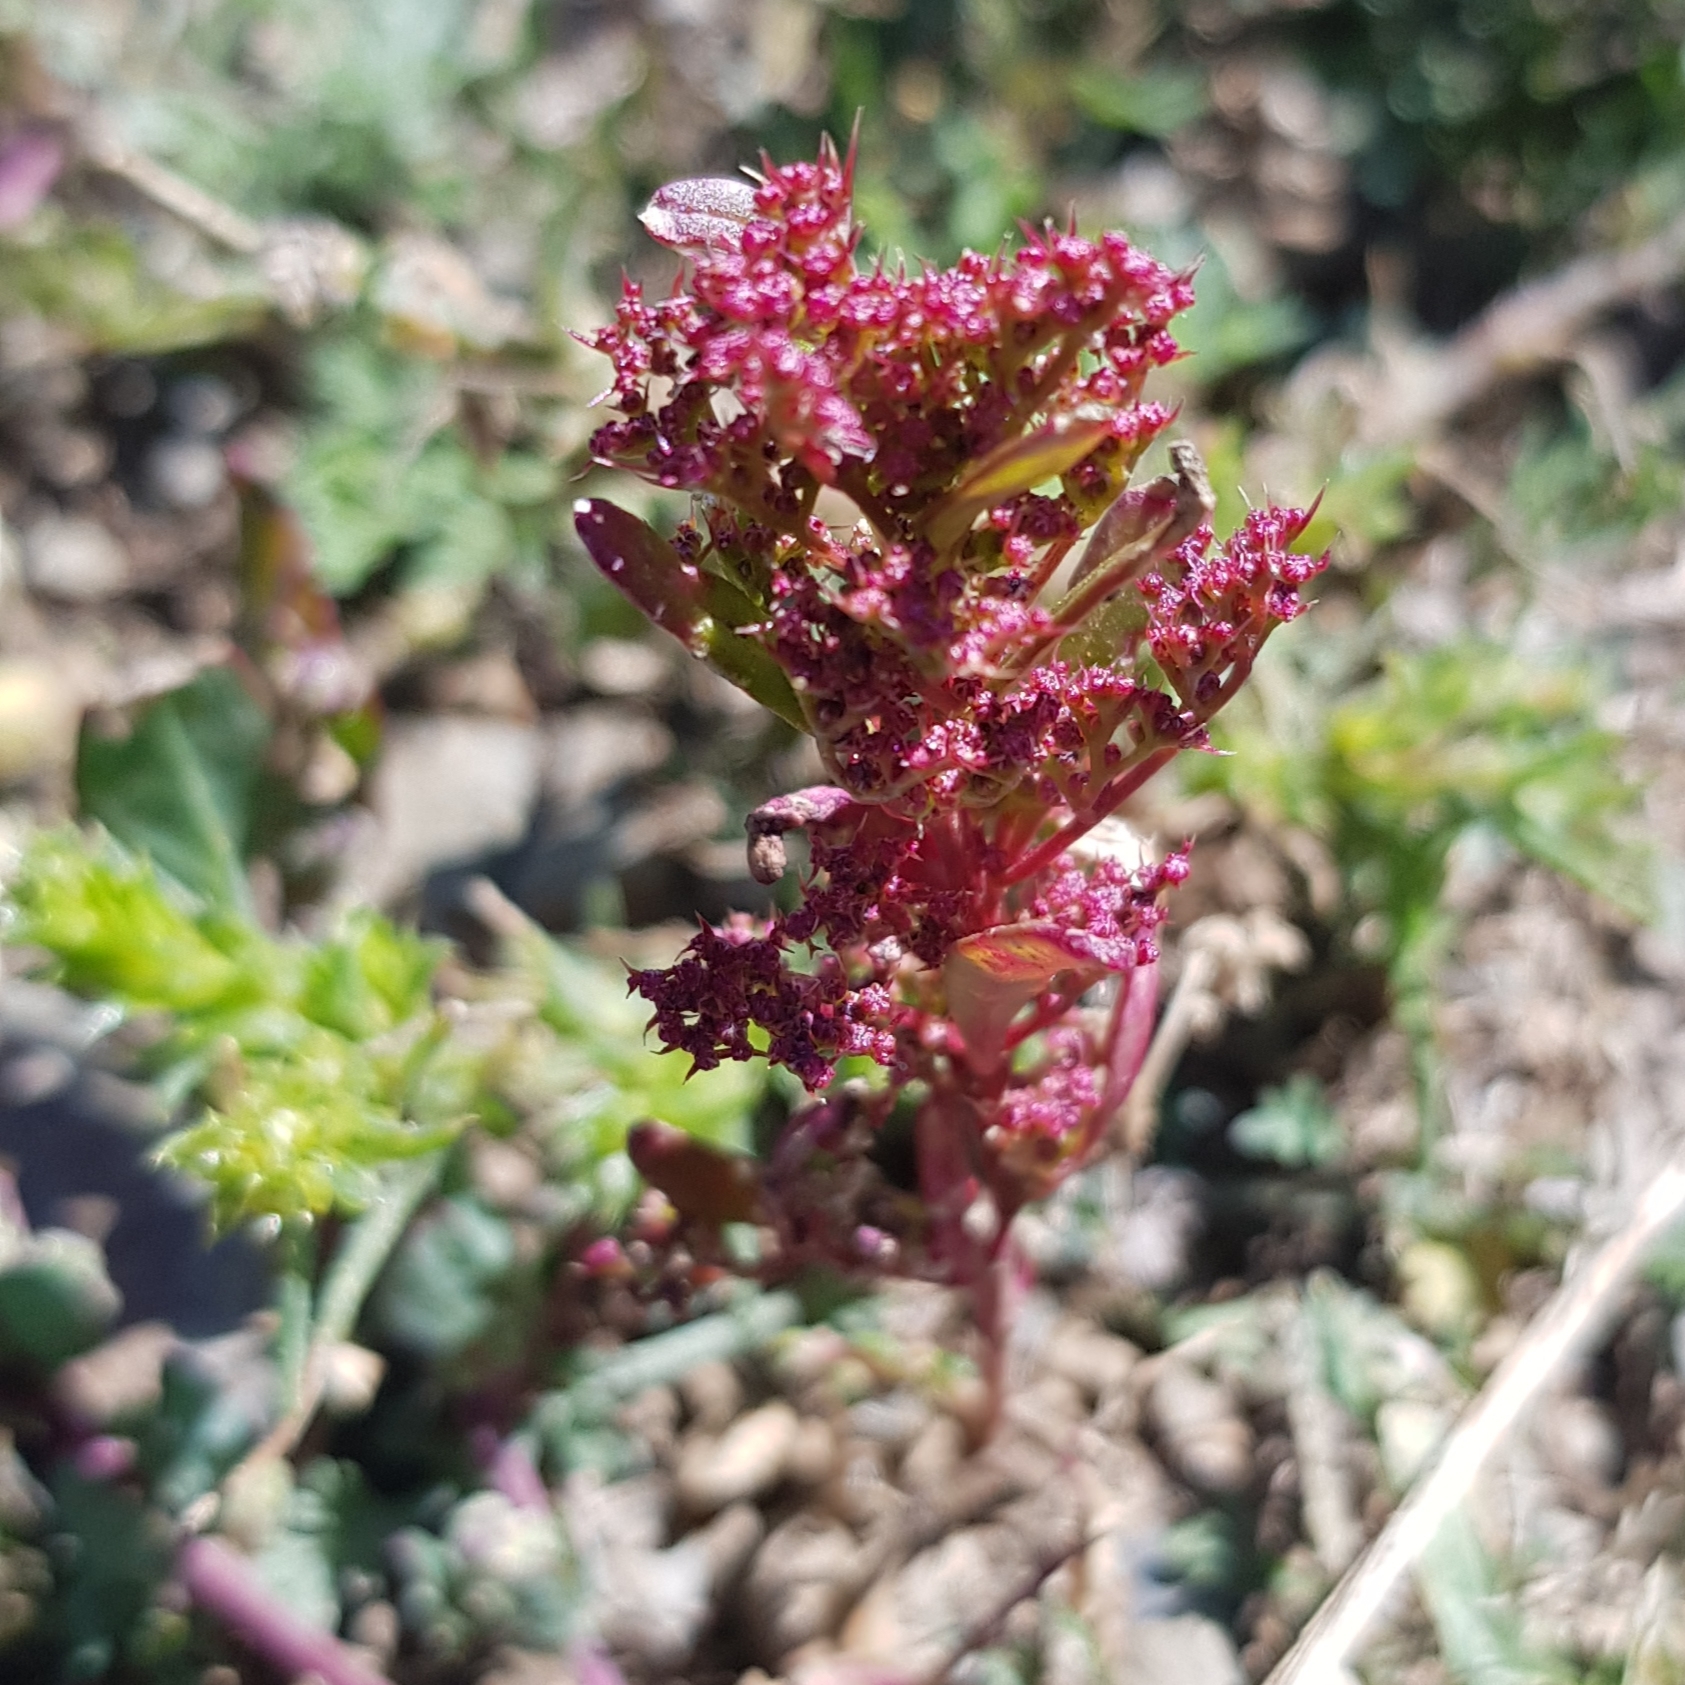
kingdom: Plantae
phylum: Tracheophyta
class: Magnoliopsida
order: Caryophyllales
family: Amaranthaceae
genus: Teloxys
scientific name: Teloxys aristata
